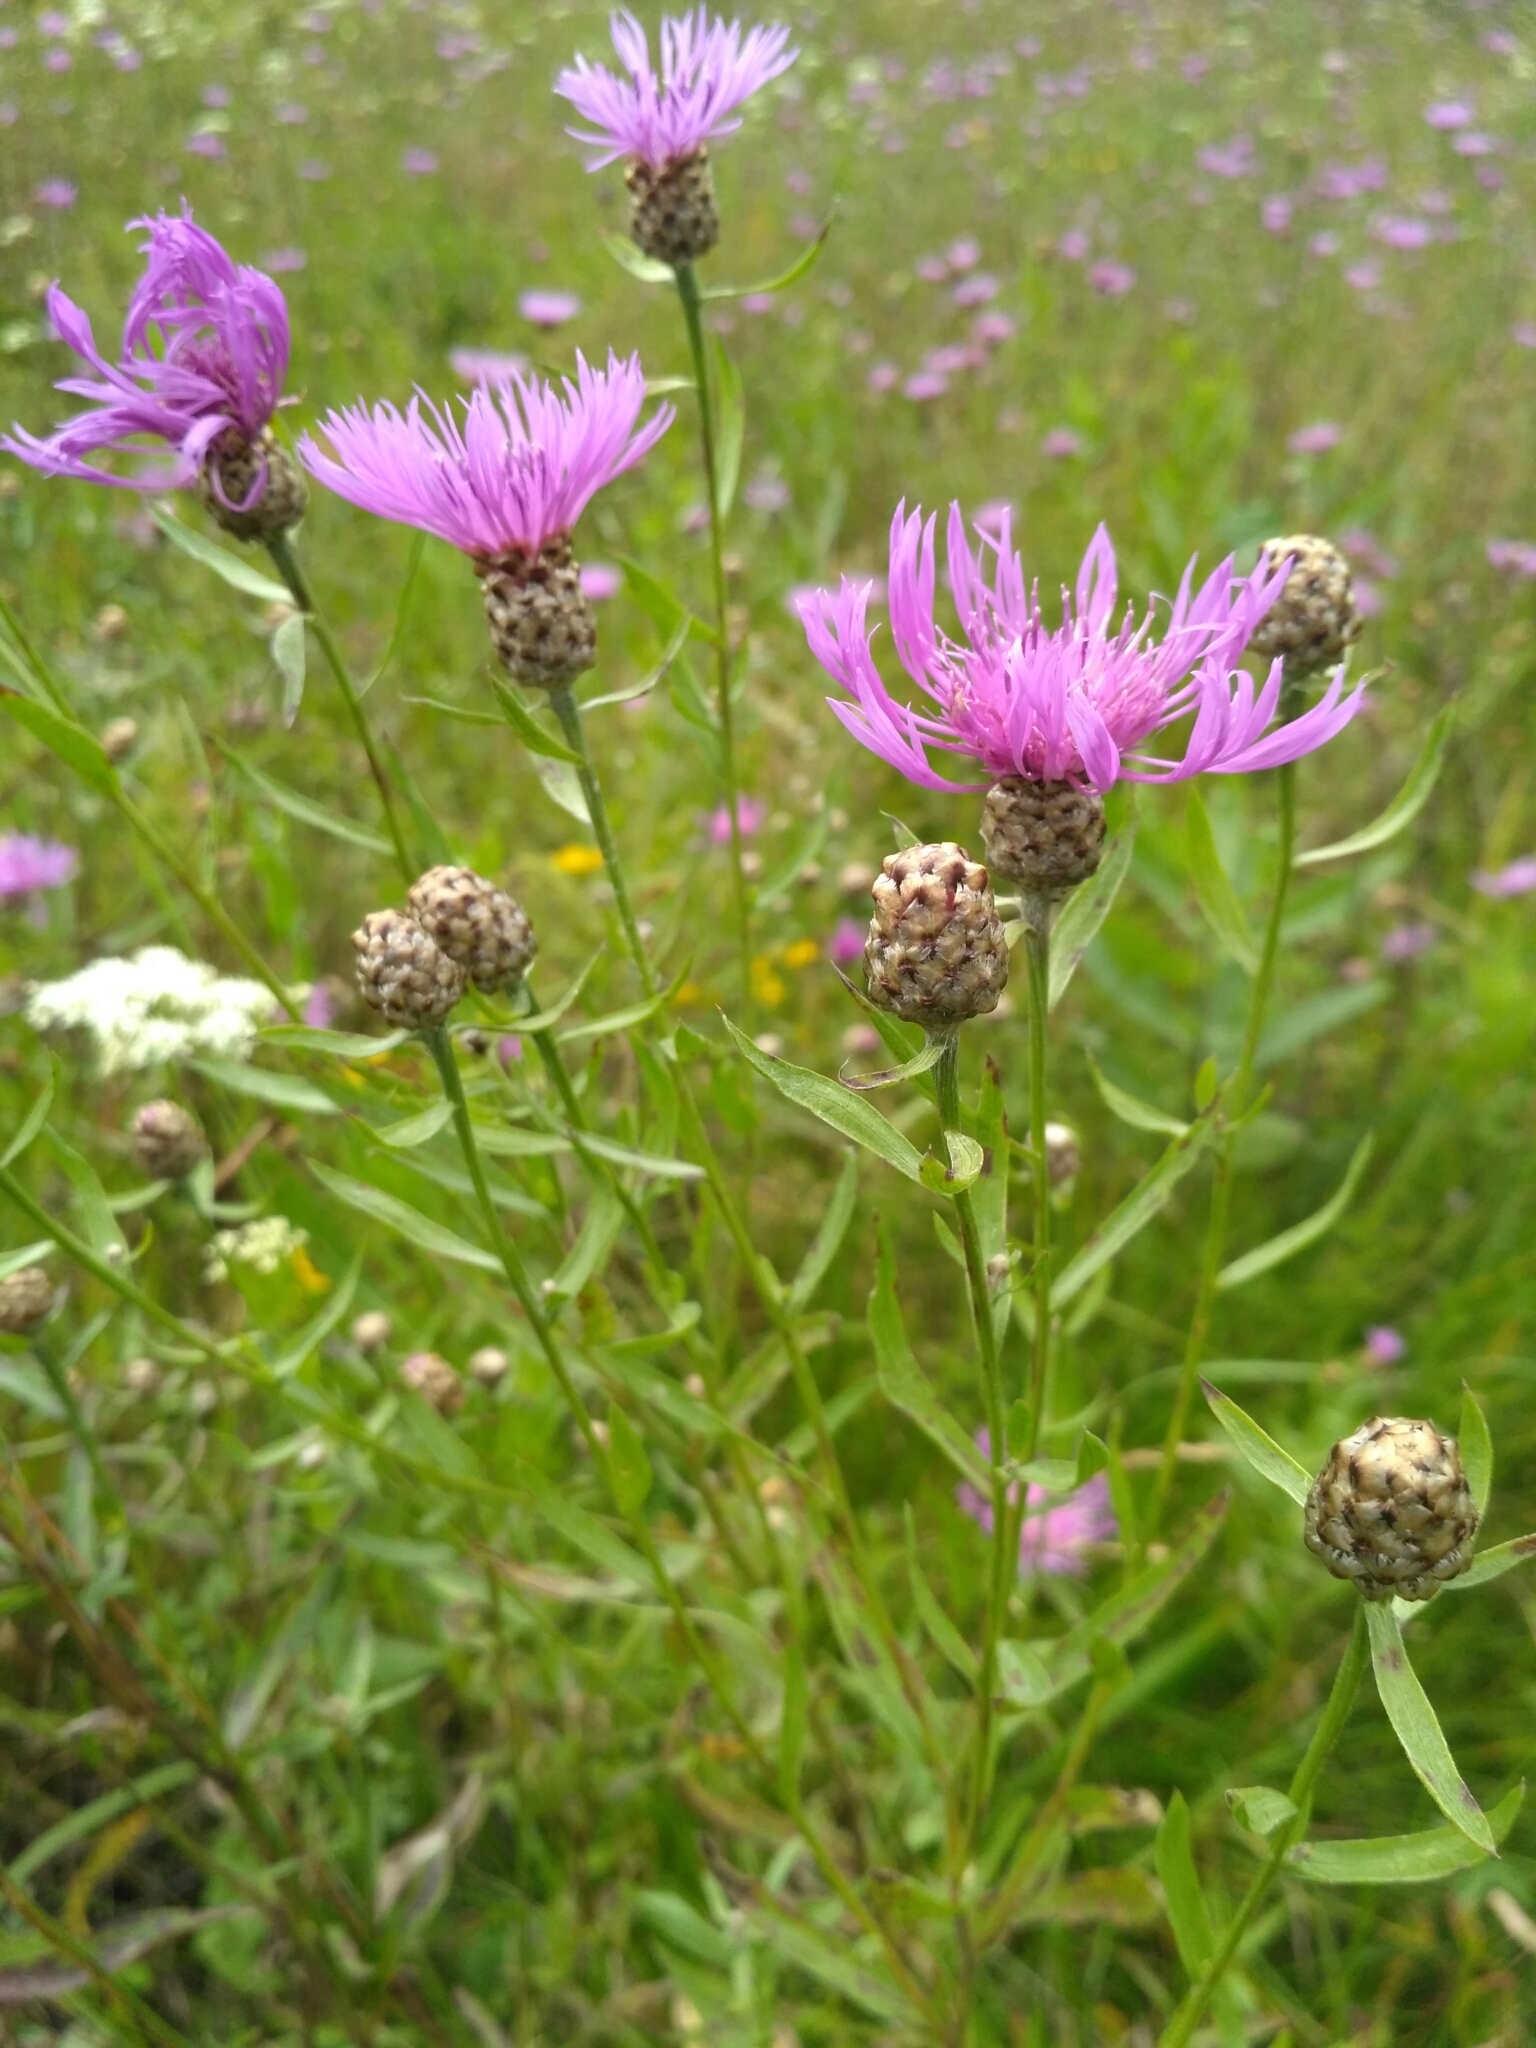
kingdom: Plantae
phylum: Tracheophyta
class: Magnoliopsida
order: Asterales
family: Asteraceae
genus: Centaurea
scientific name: Centaurea jacea
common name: Brown knapweed
